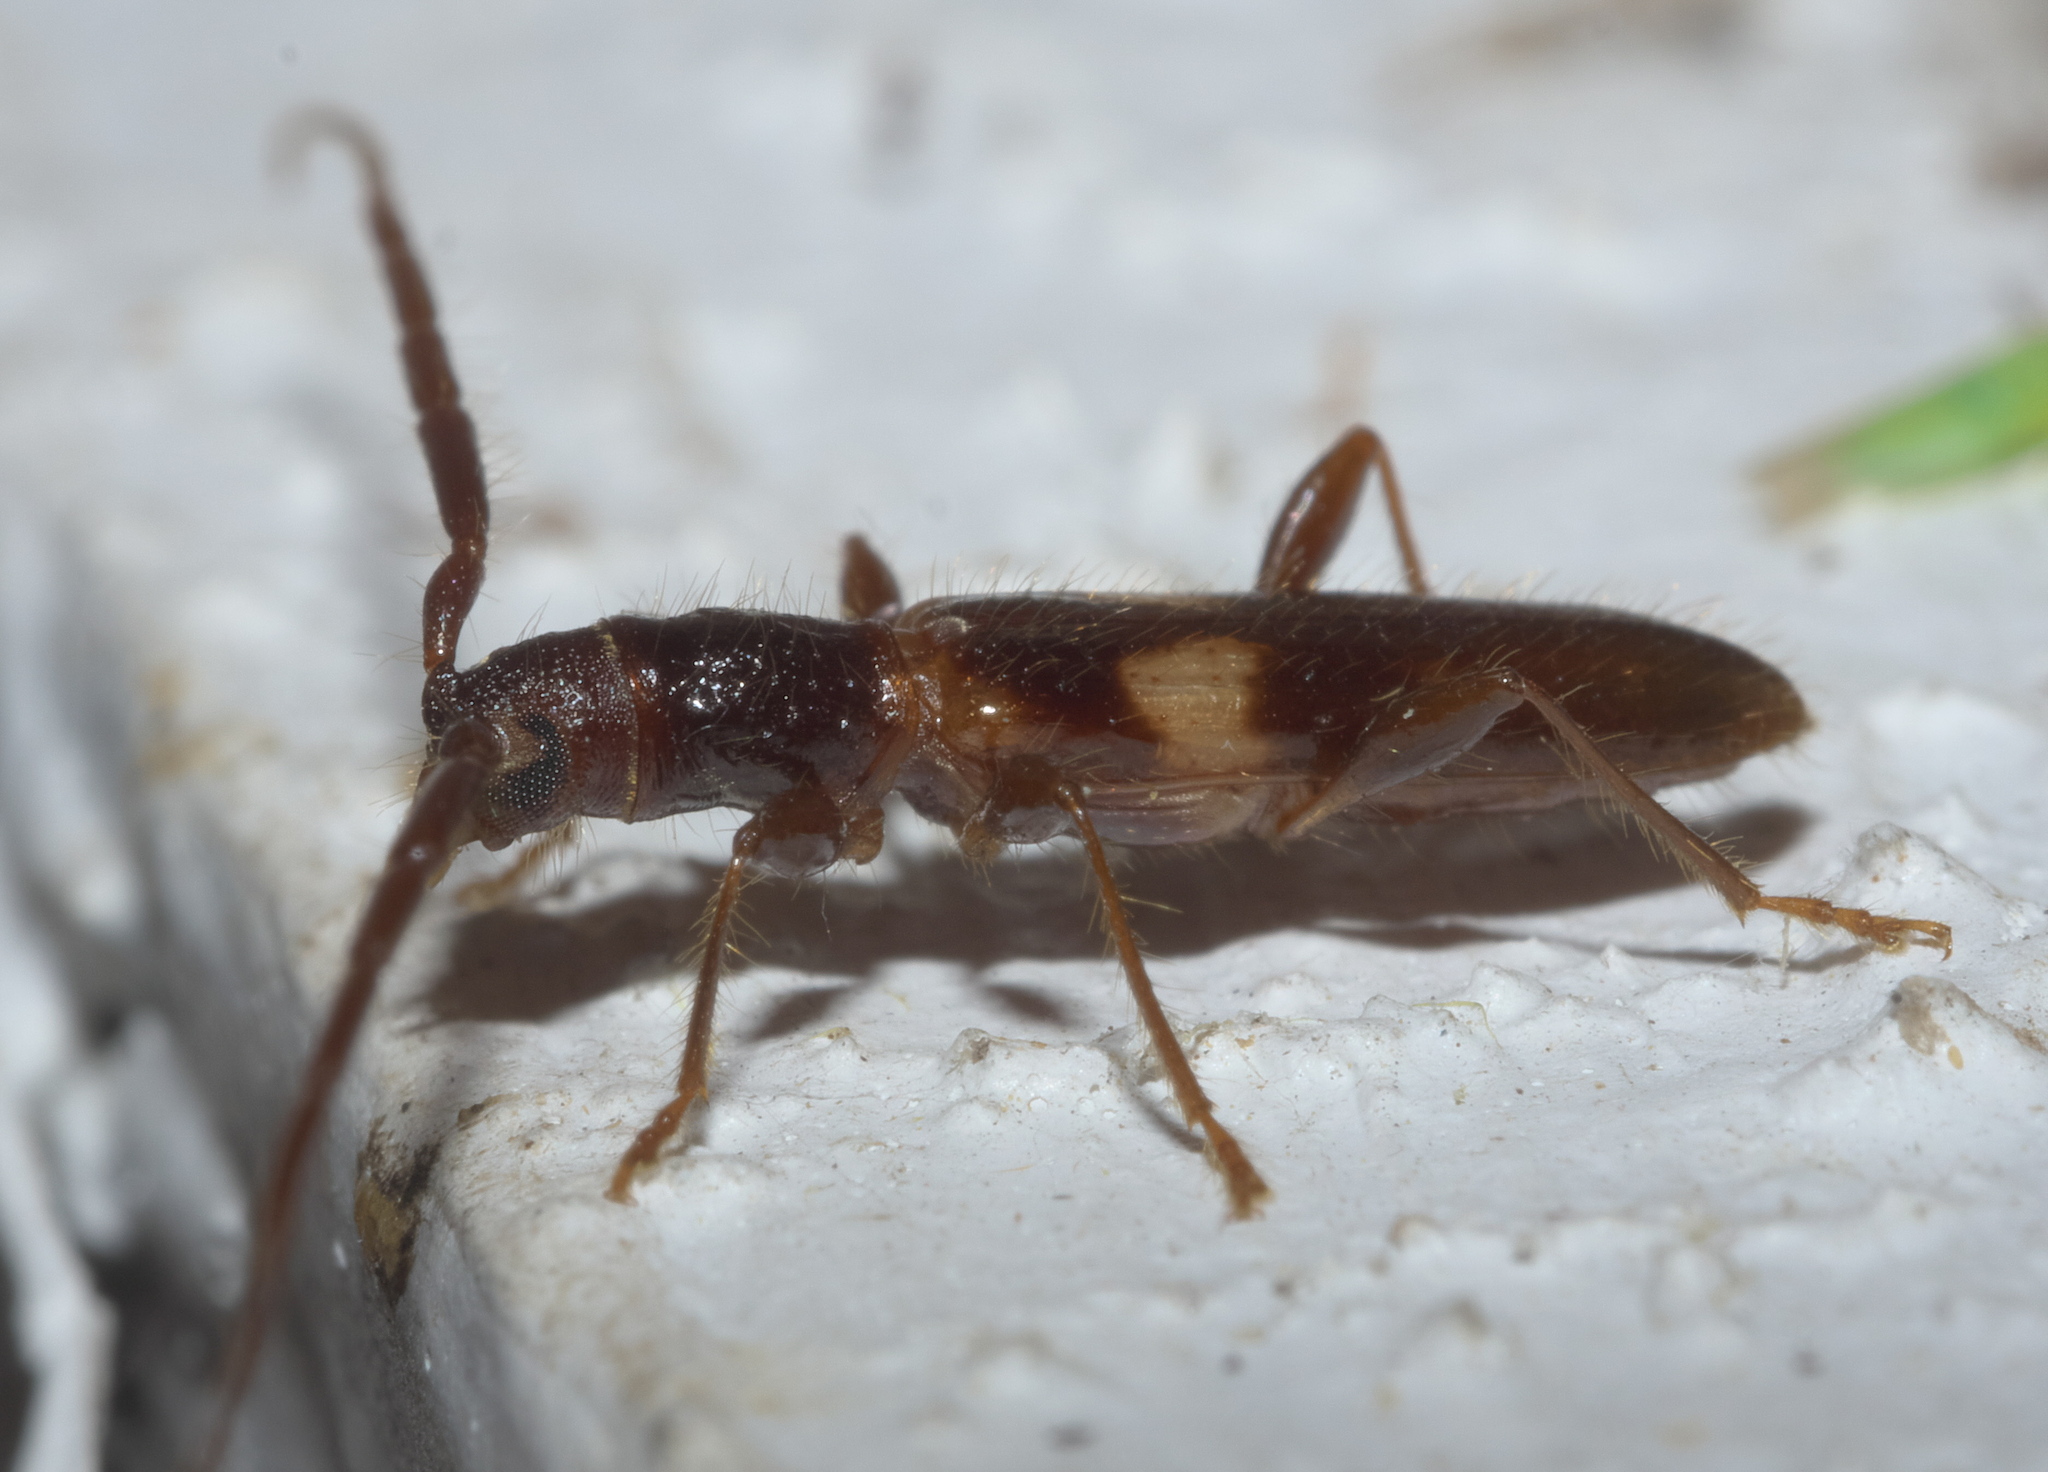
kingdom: Animalia
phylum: Arthropoda
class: Insecta
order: Coleoptera
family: Cerambycidae
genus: Heterachthes
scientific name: Heterachthes quadrimaculatus
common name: Four-spotted hickory borer
